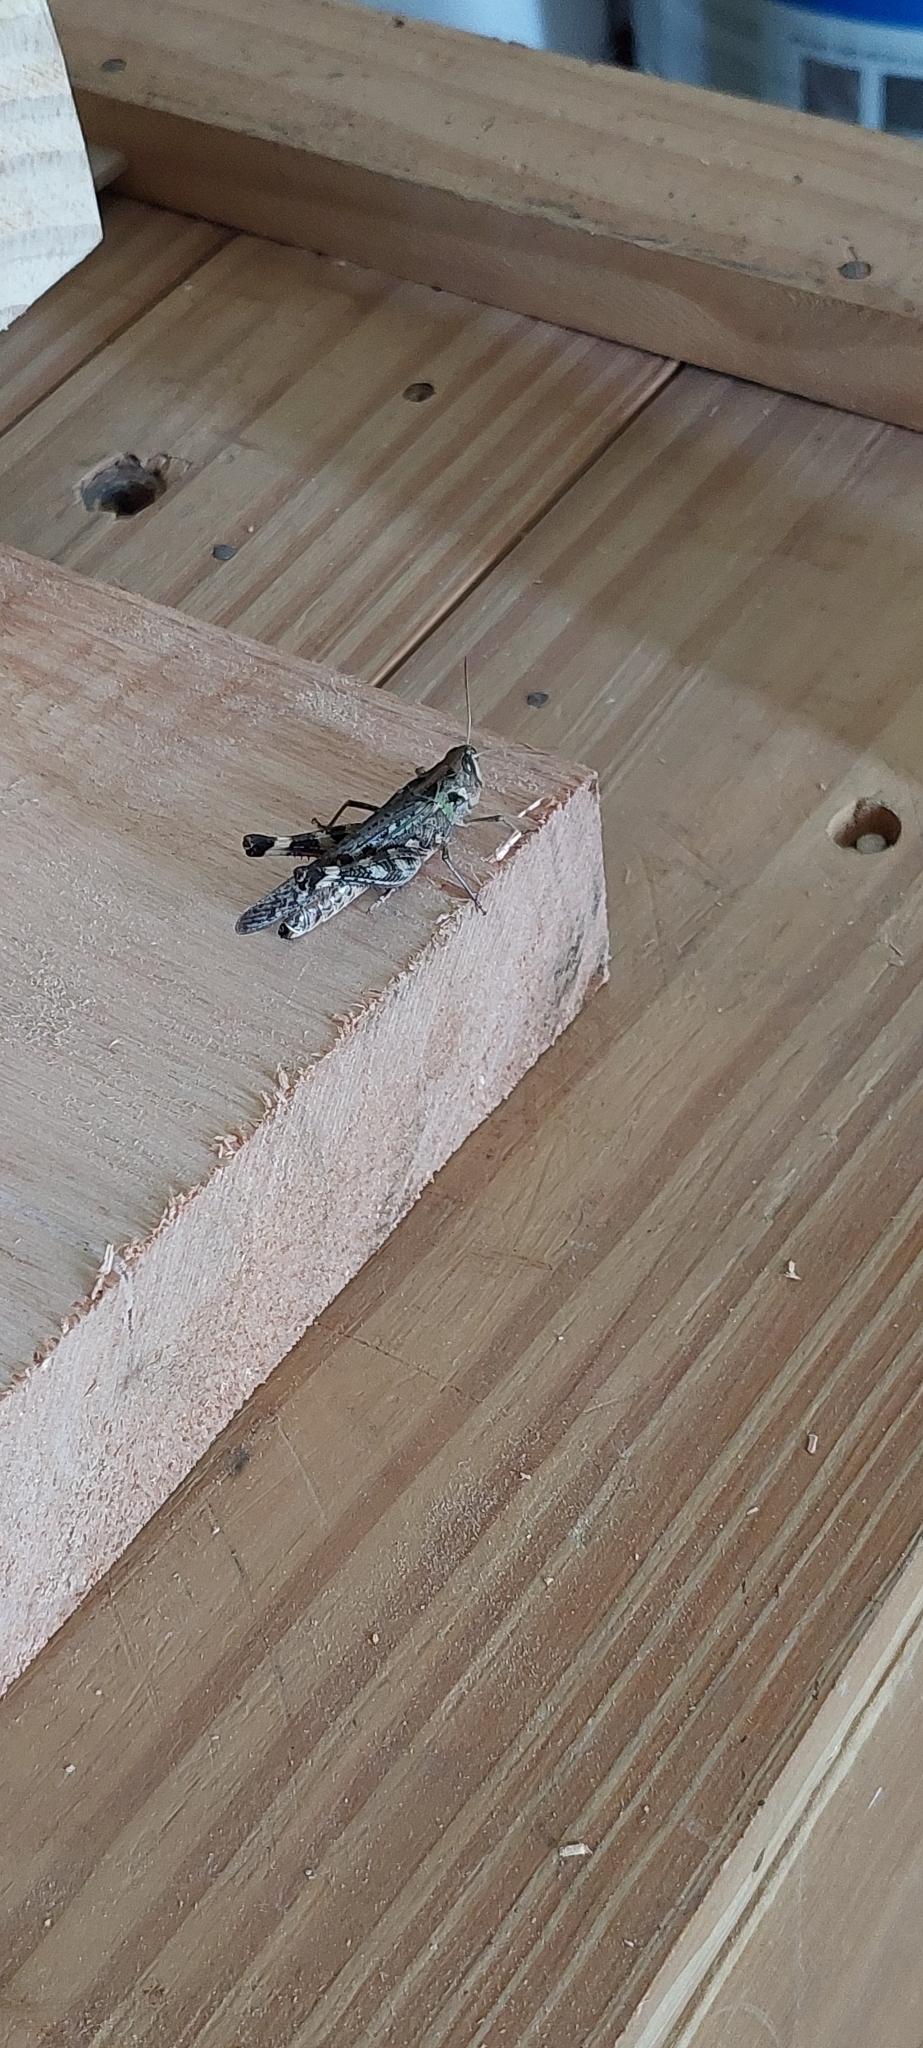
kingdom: Animalia
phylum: Arthropoda
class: Insecta
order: Orthoptera
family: Acrididae
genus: Rhammatocerus
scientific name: Rhammatocerus pictus
